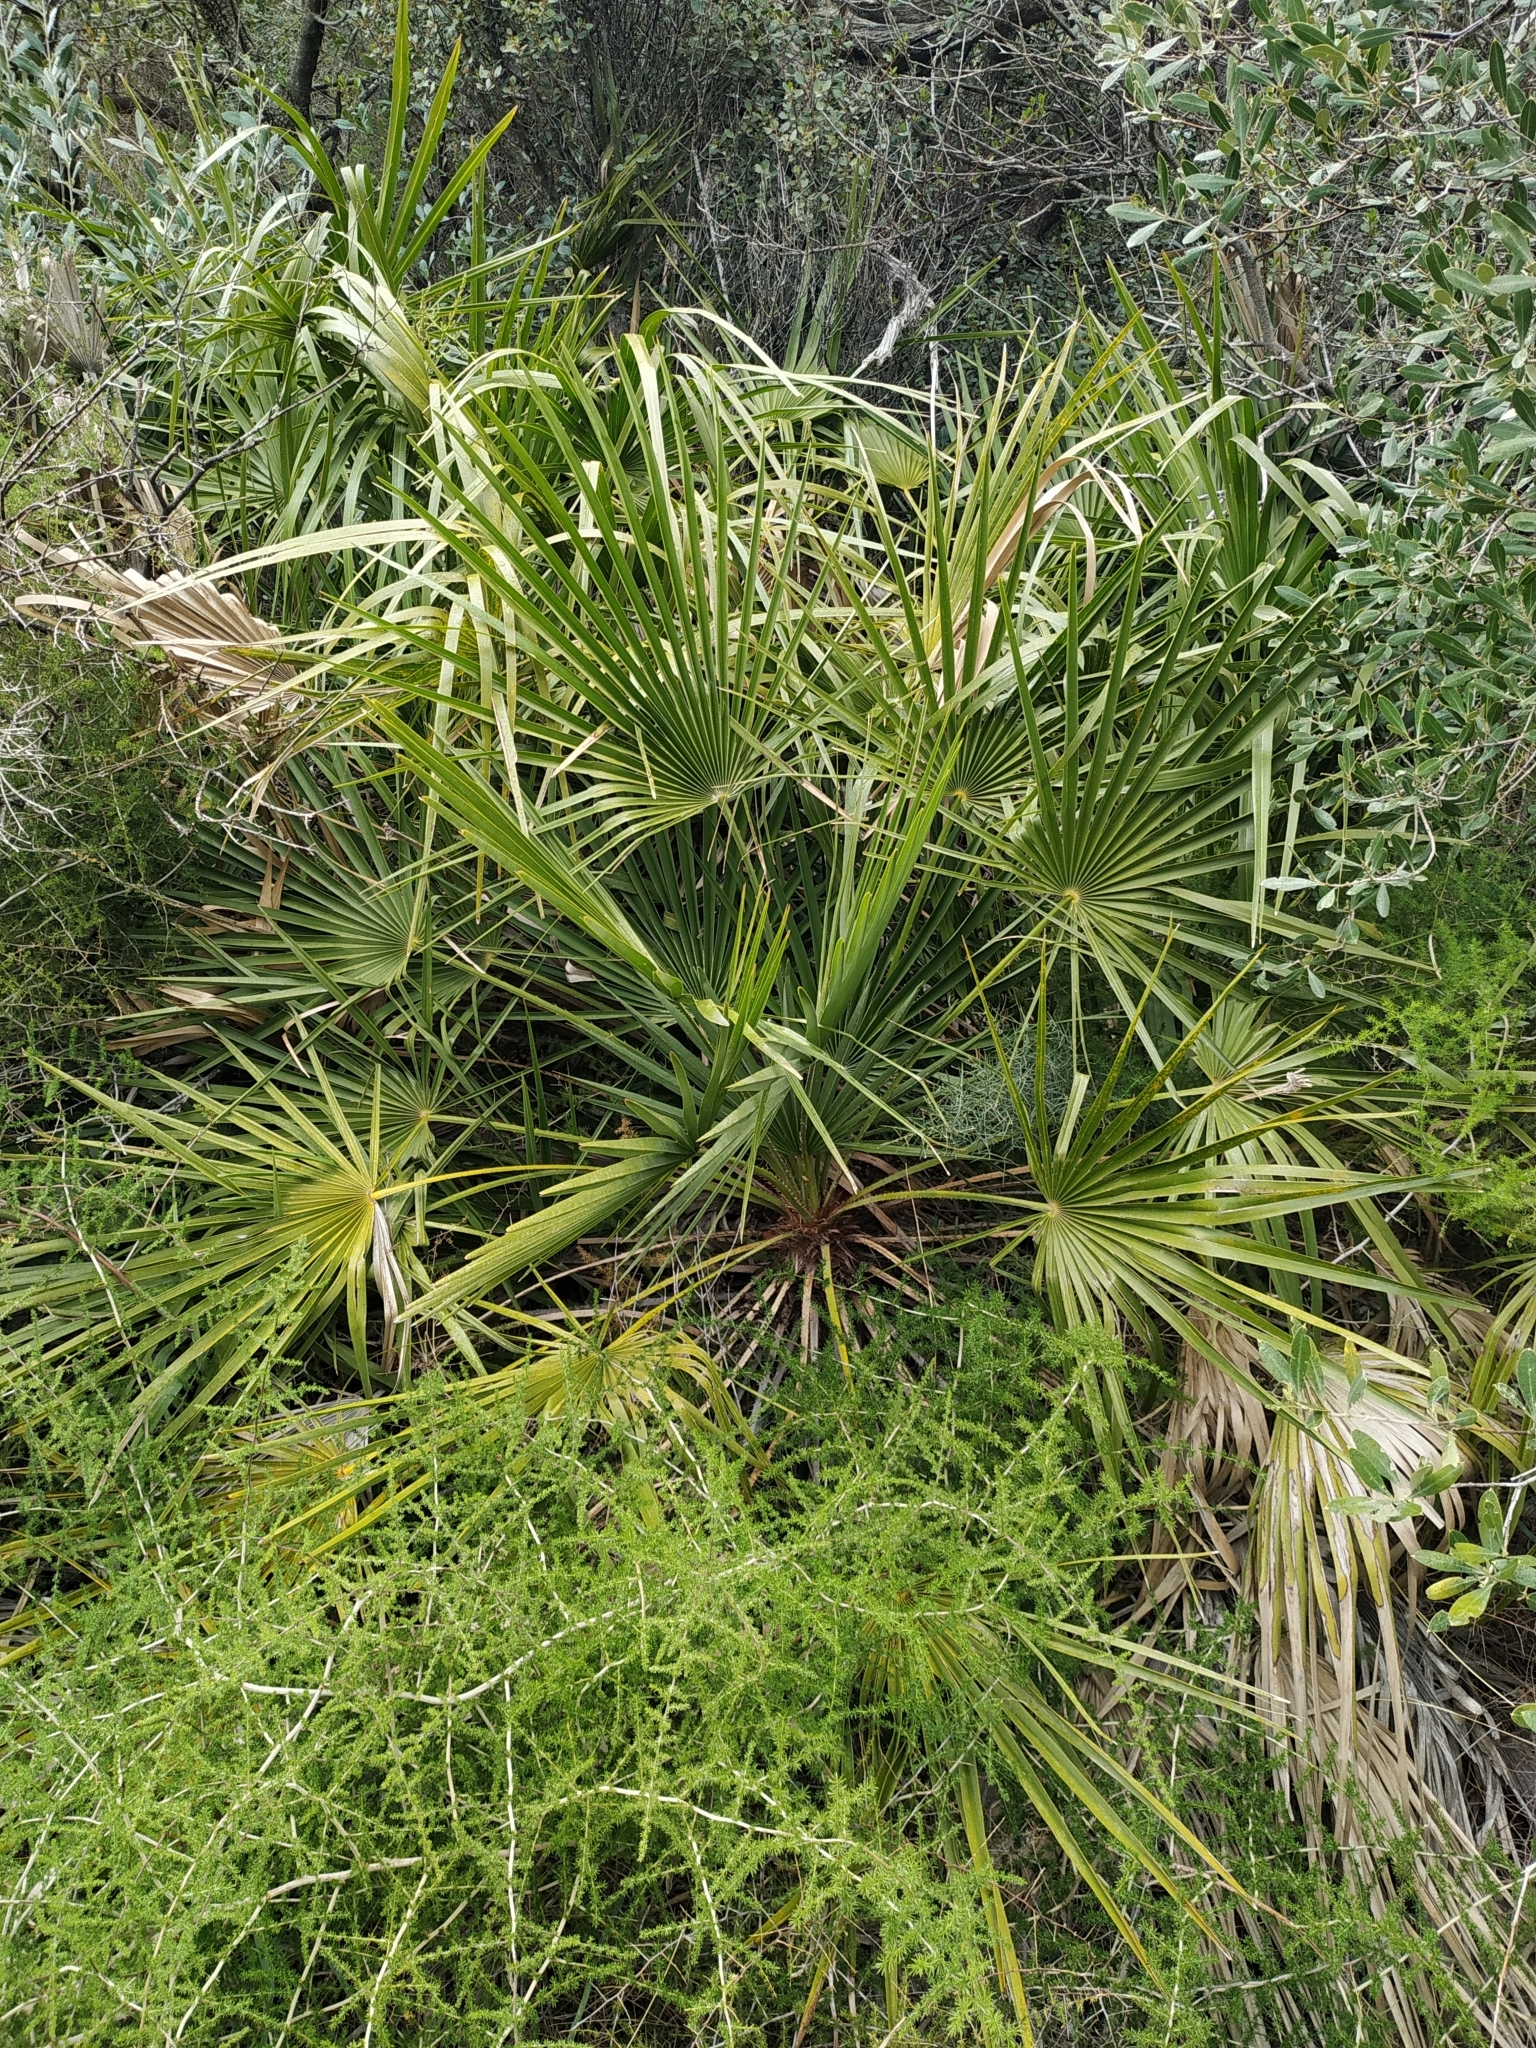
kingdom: Plantae
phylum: Tracheophyta
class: Liliopsida
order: Arecales
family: Arecaceae
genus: Chamaerops
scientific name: Chamaerops humilis
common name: Dwarf fan palm
